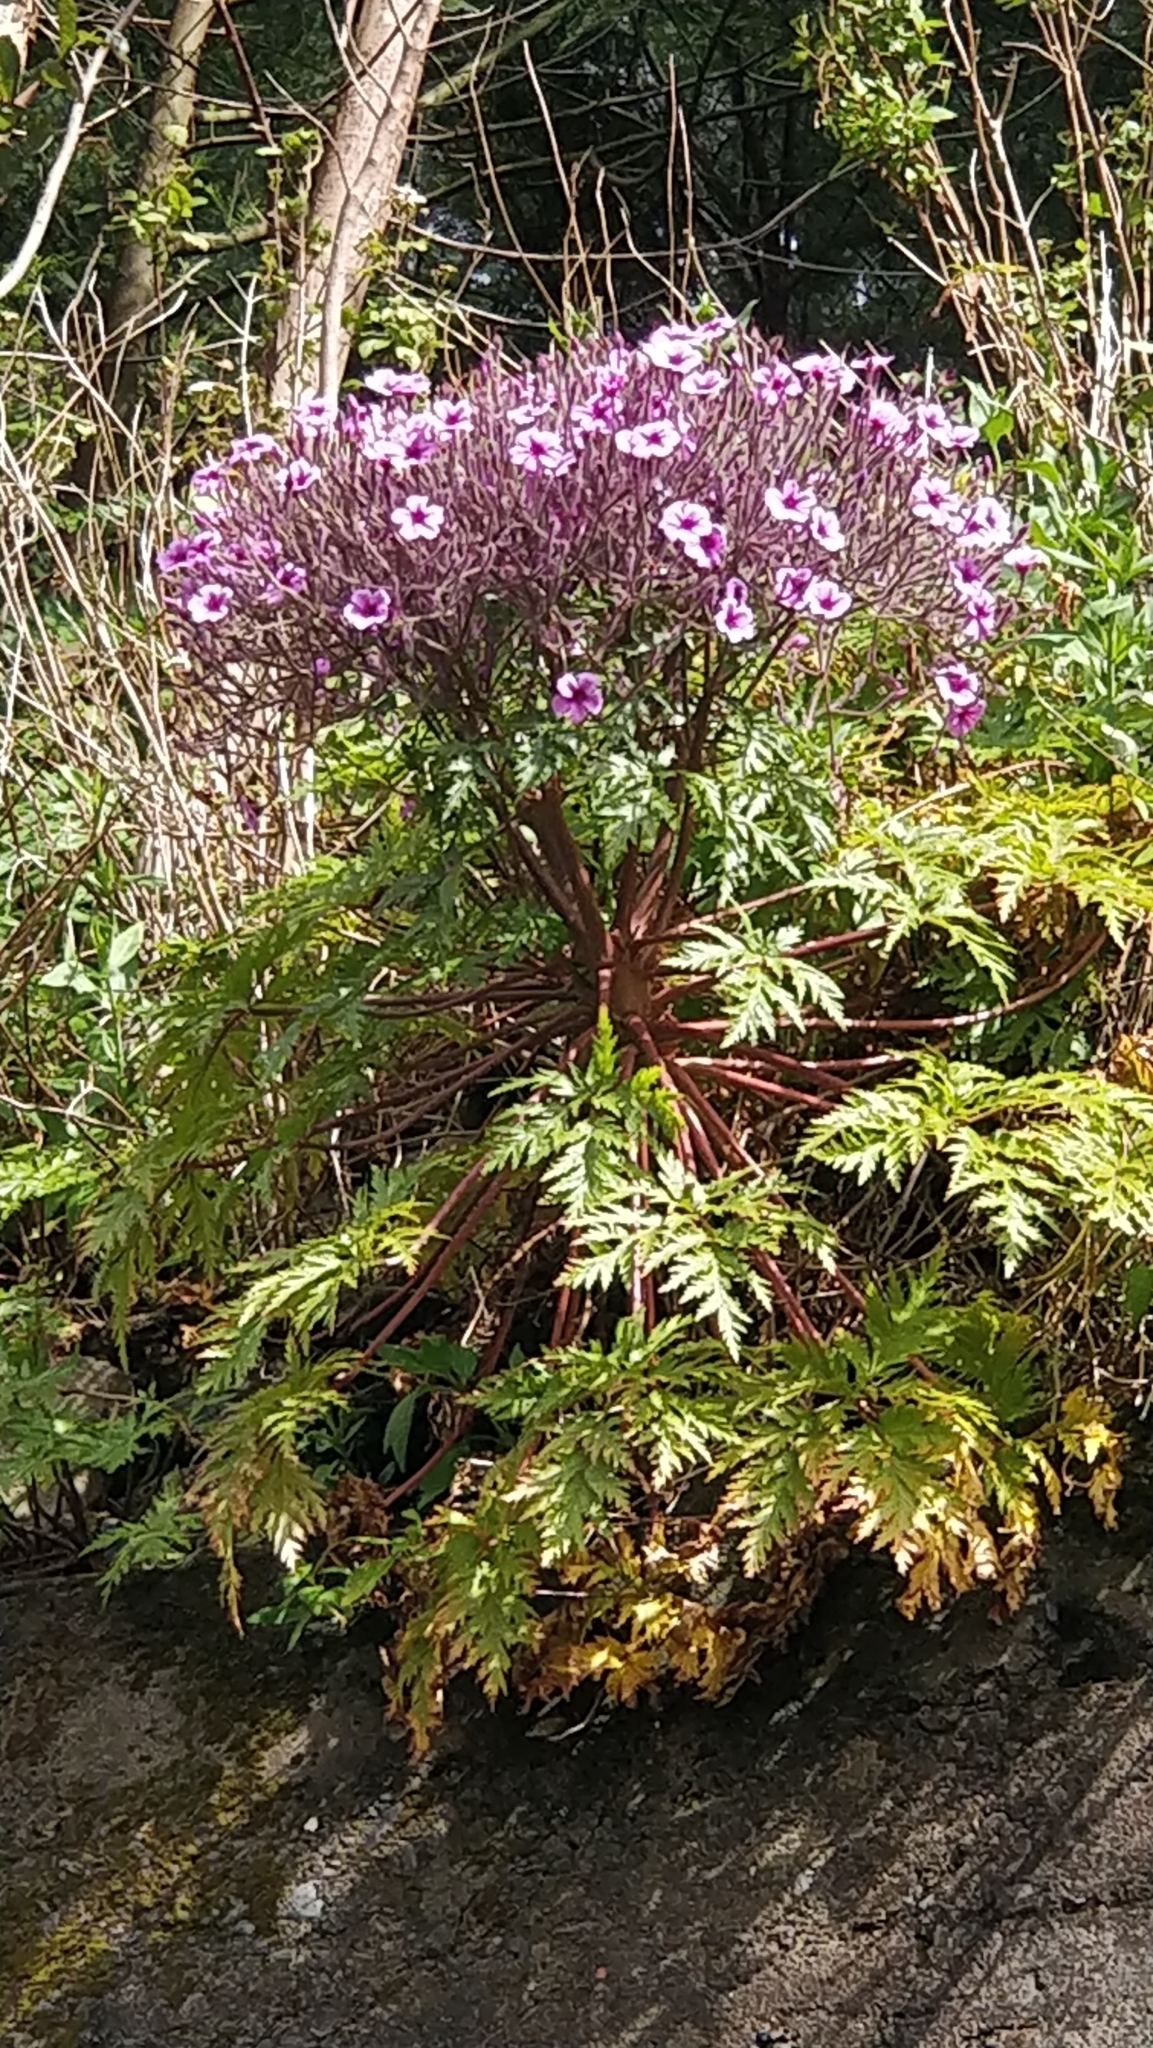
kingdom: Plantae
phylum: Tracheophyta
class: Magnoliopsida
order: Geraniales
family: Geraniaceae
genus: Geranium
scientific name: Geranium maderense
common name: Giant herb-robert
